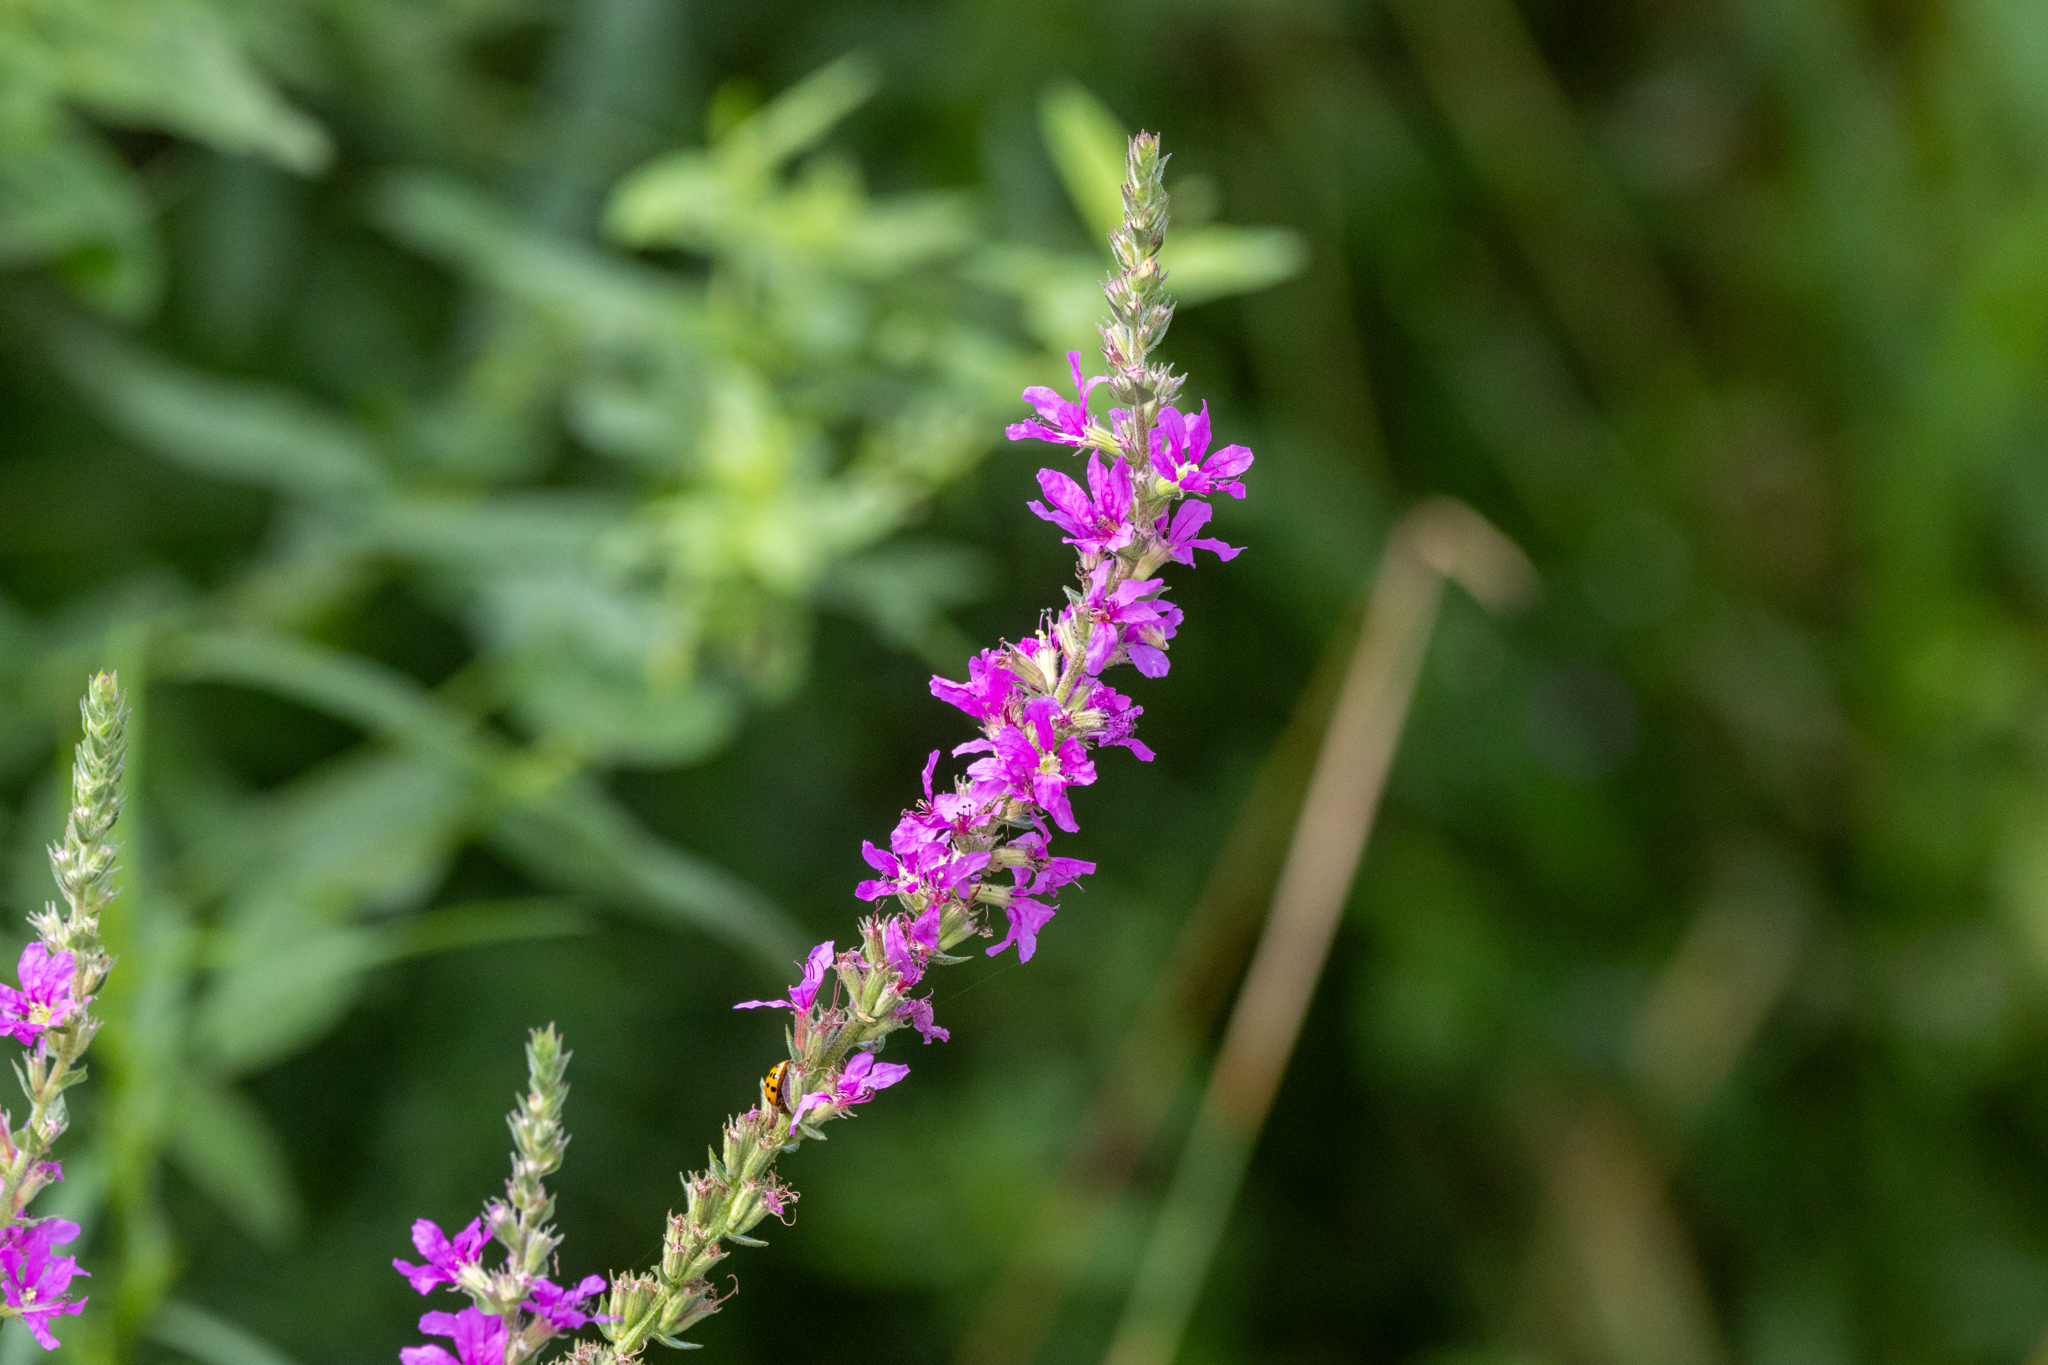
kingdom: Plantae
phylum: Tracheophyta
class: Magnoliopsida
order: Myrtales
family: Lythraceae
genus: Lythrum
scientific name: Lythrum salicaria
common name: Purple loosestrife
